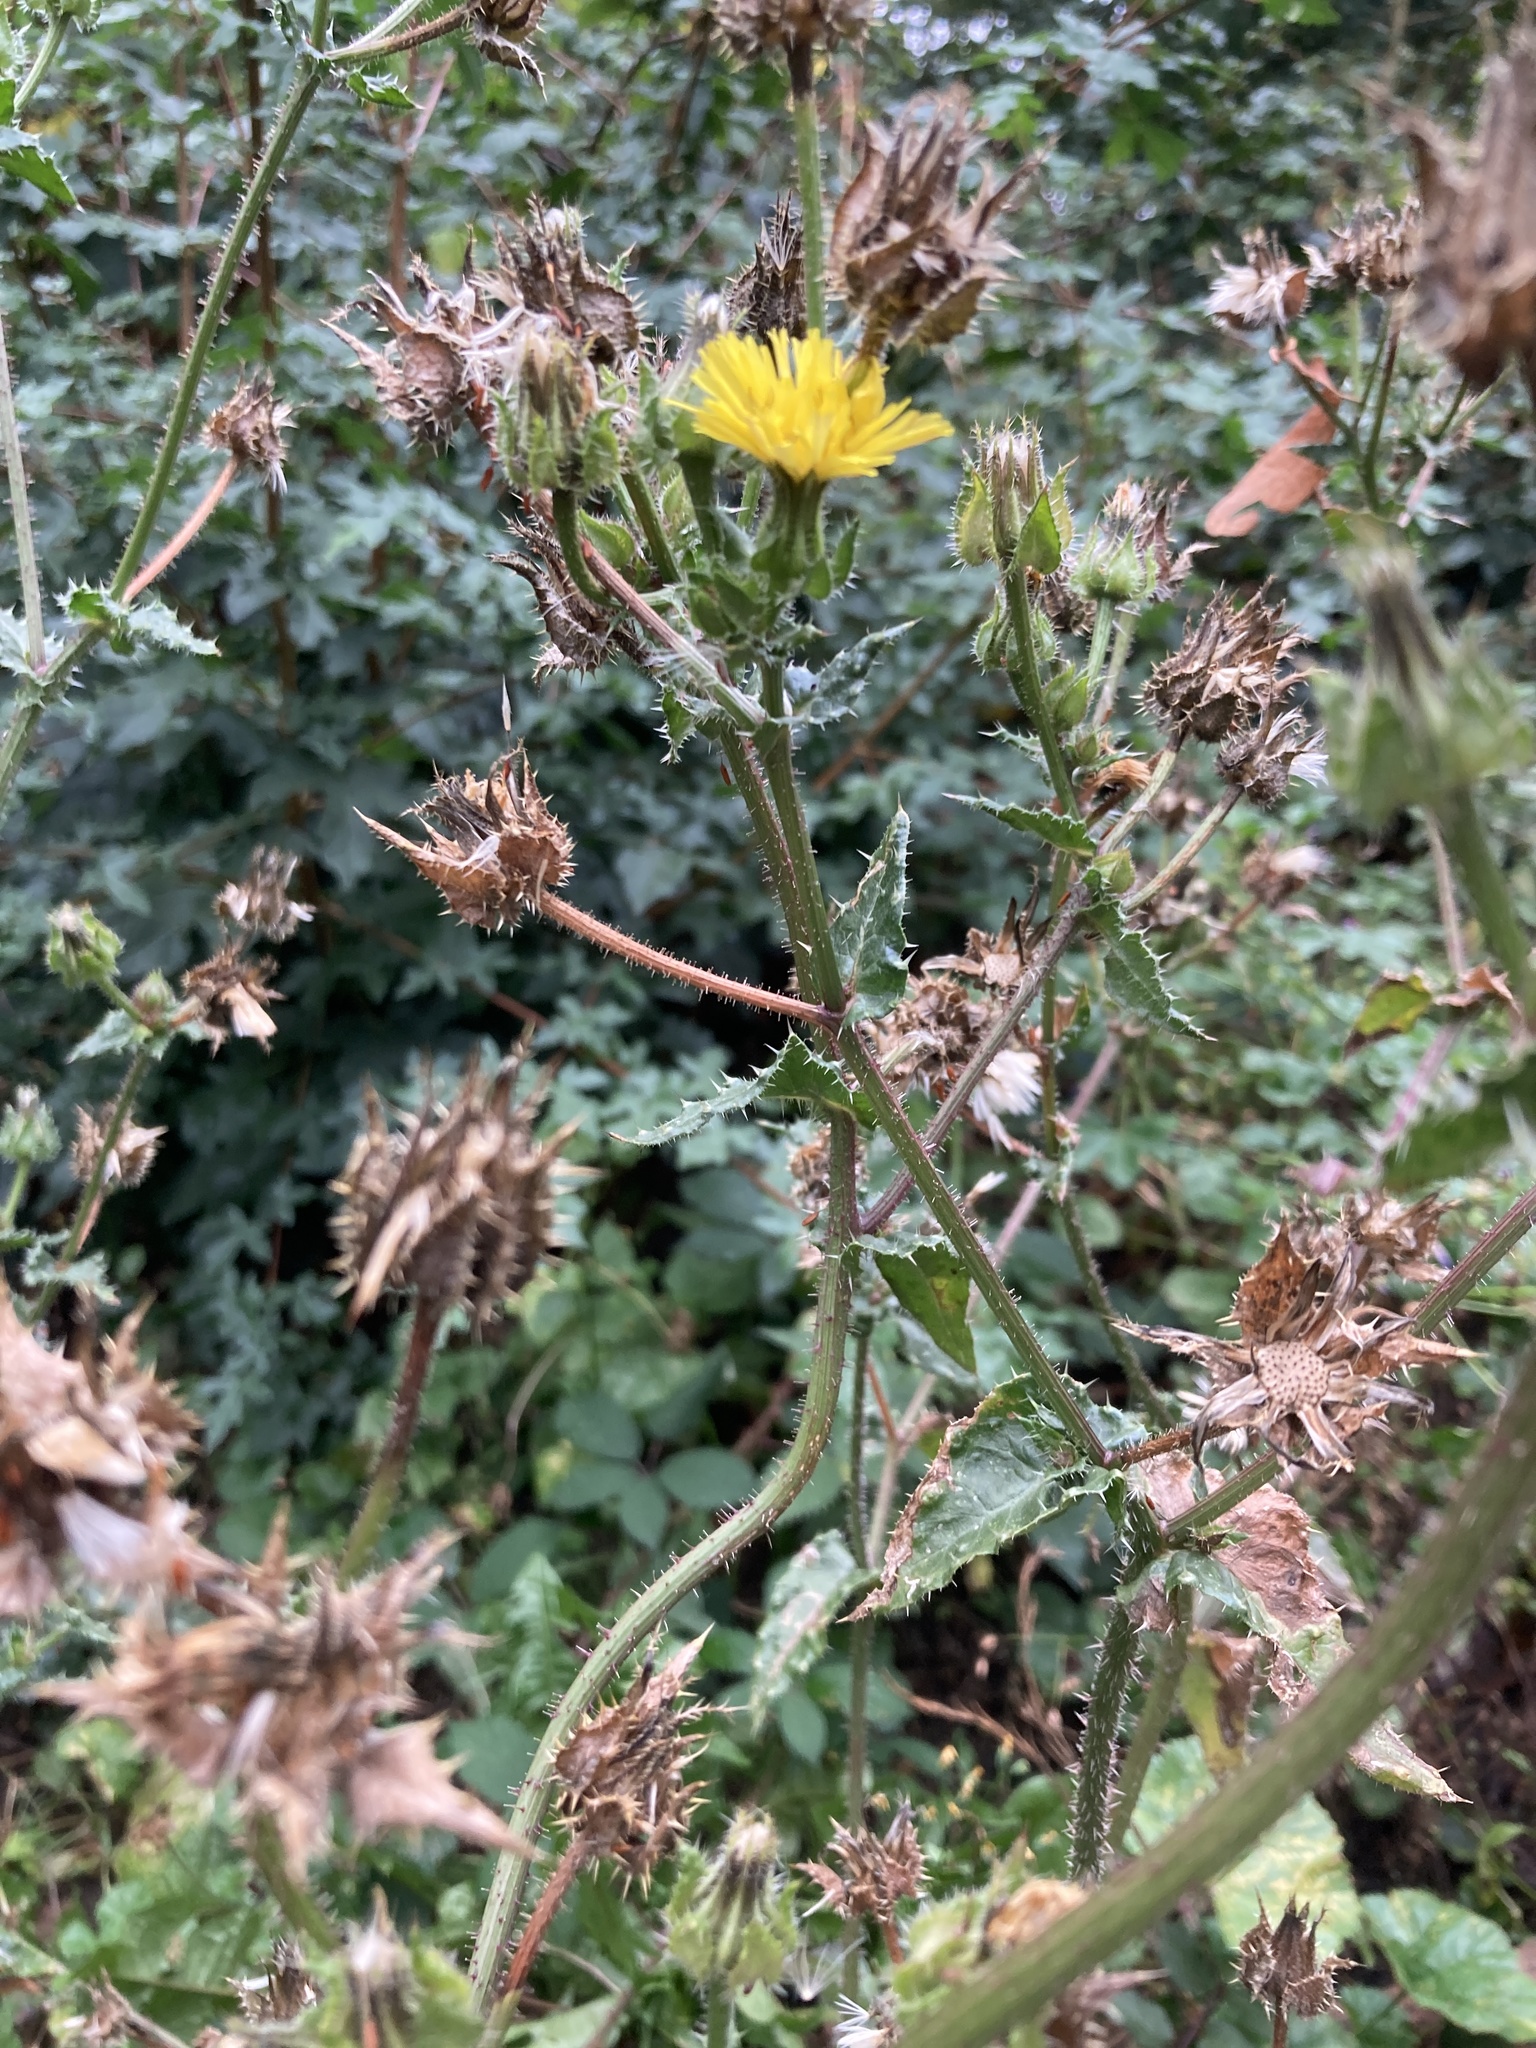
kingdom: Plantae
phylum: Tracheophyta
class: Magnoliopsida
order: Asterales
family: Asteraceae
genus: Helminthotheca
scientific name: Helminthotheca echioides
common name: Ox-tongue
